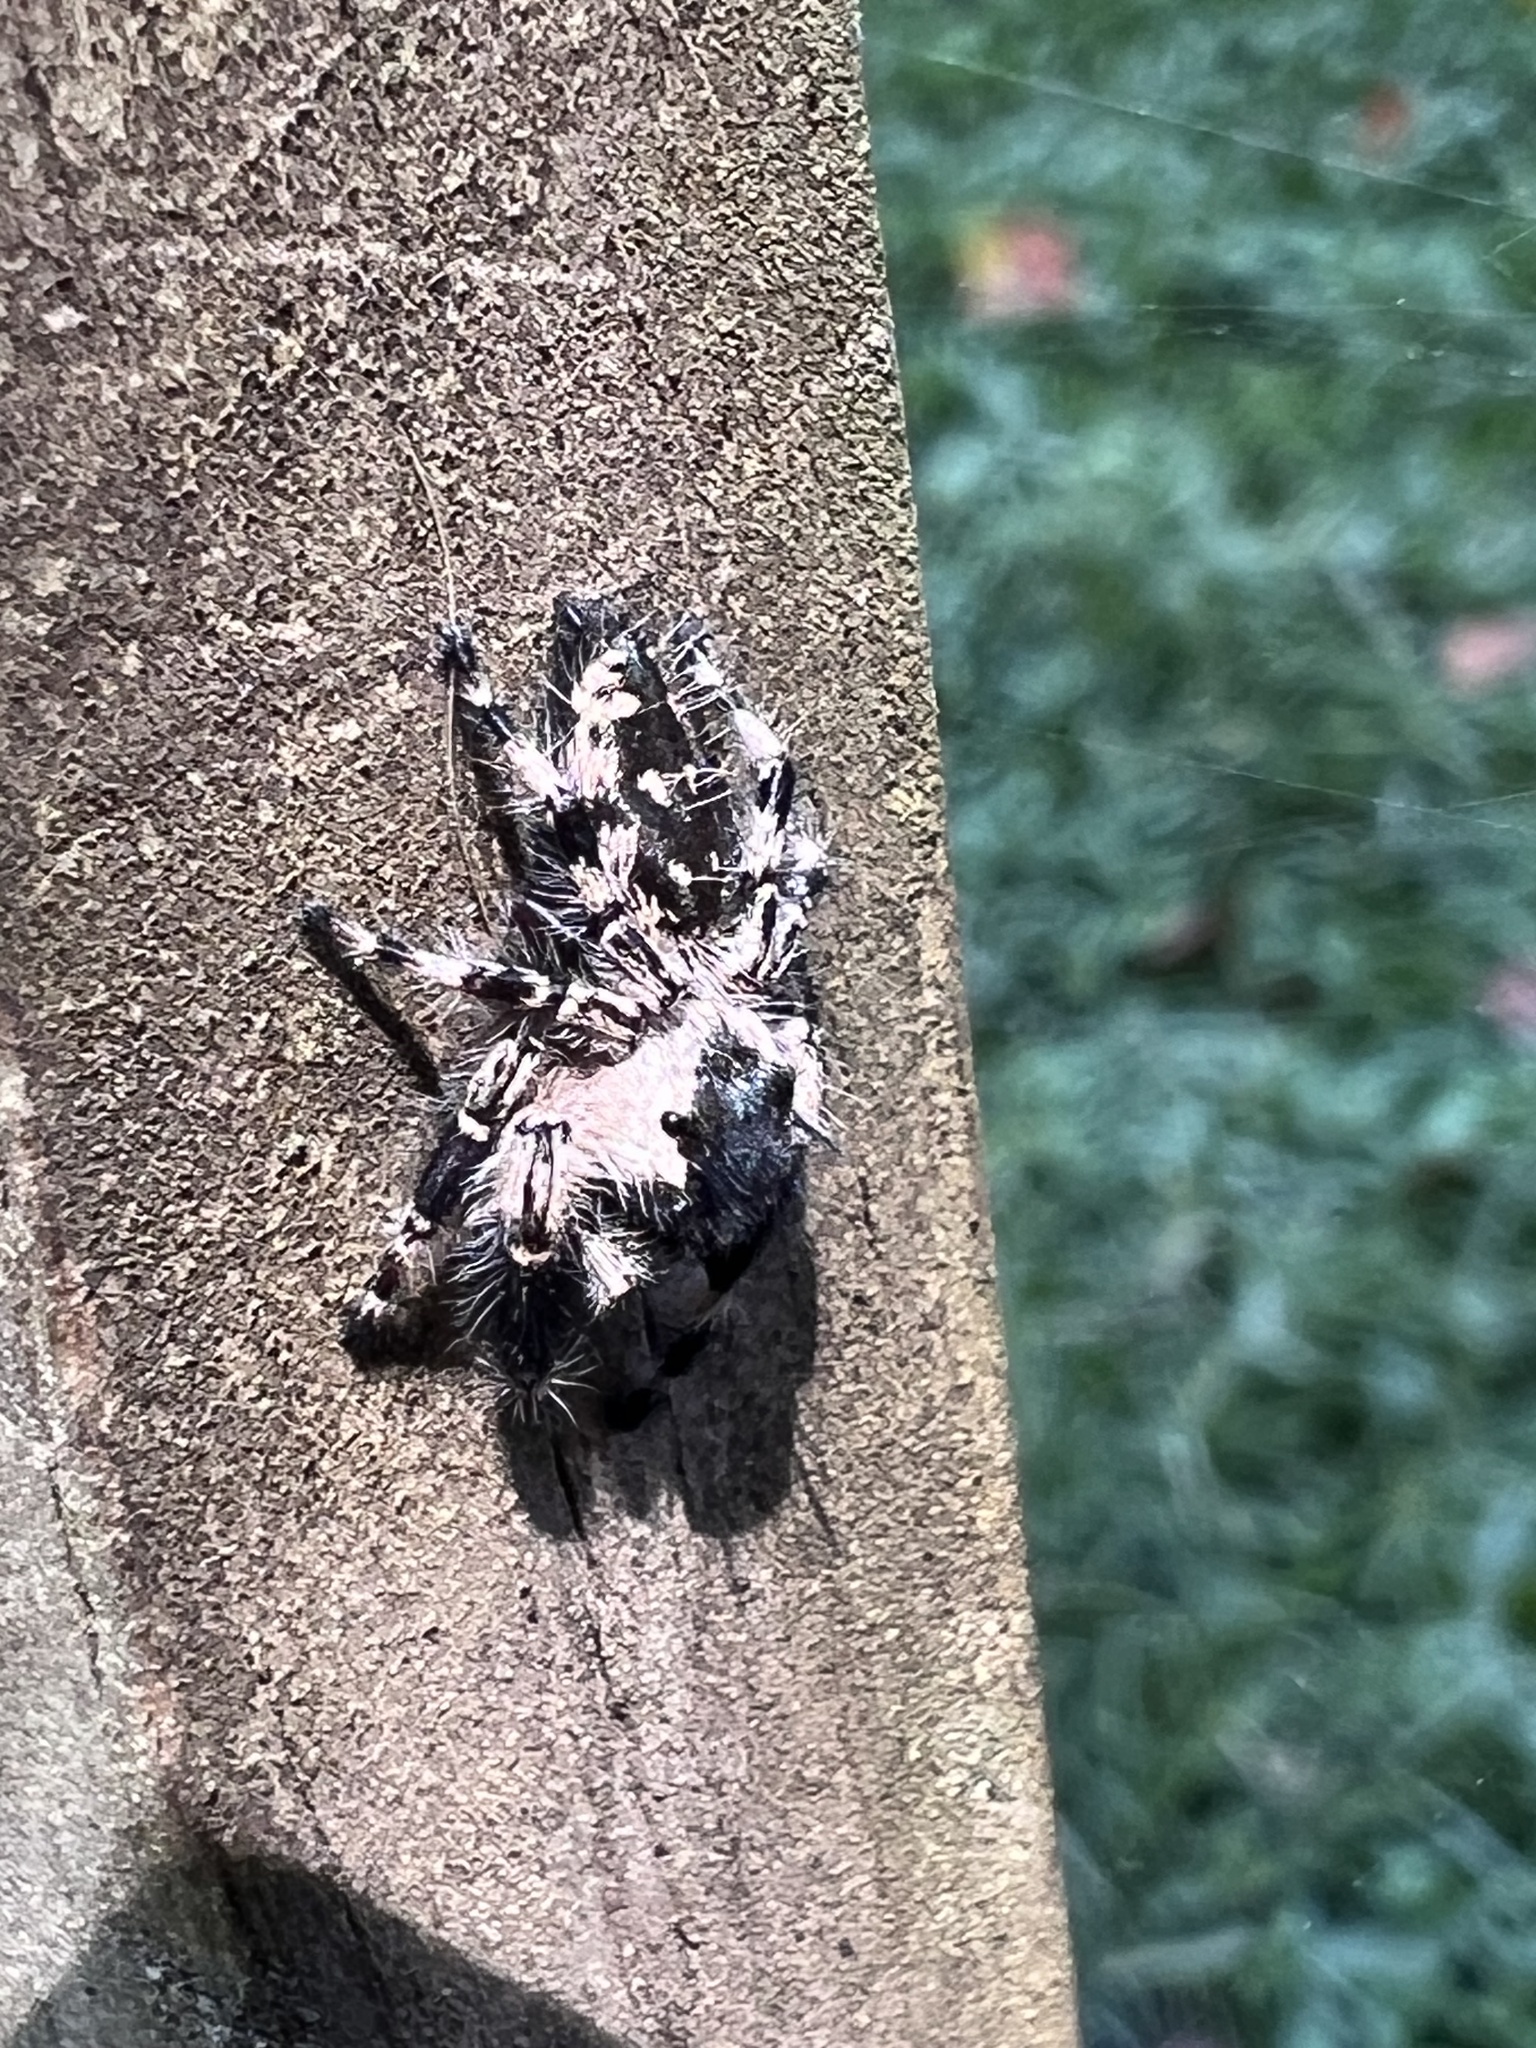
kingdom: Animalia
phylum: Arthropoda
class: Arachnida
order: Araneae
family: Salticidae
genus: Phidippus
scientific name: Phidippus otiosus
